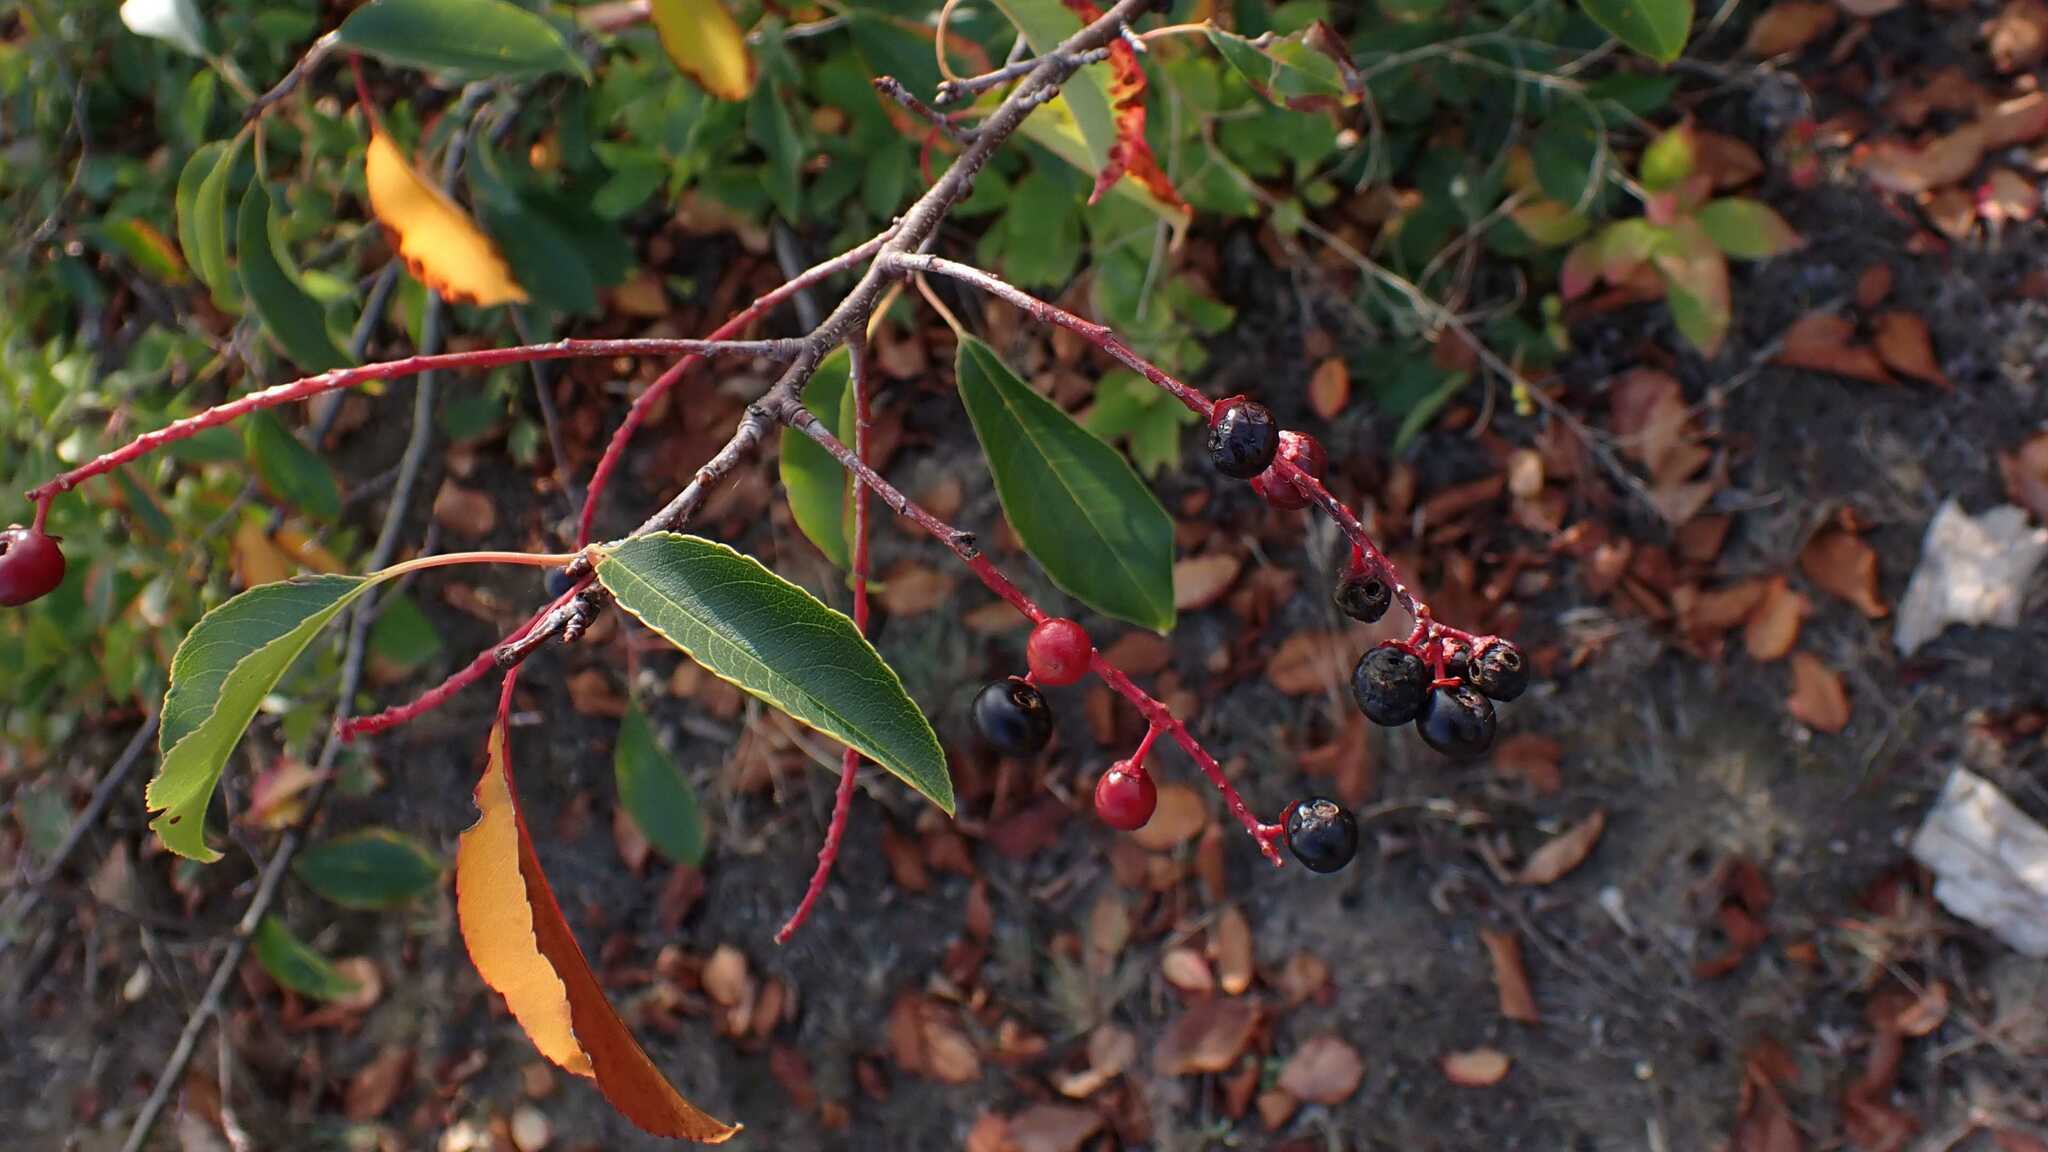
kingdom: Plantae
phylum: Tracheophyta
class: Magnoliopsida
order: Rosales
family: Rosaceae
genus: Prunus
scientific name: Prunus serotina
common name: Black cherry
